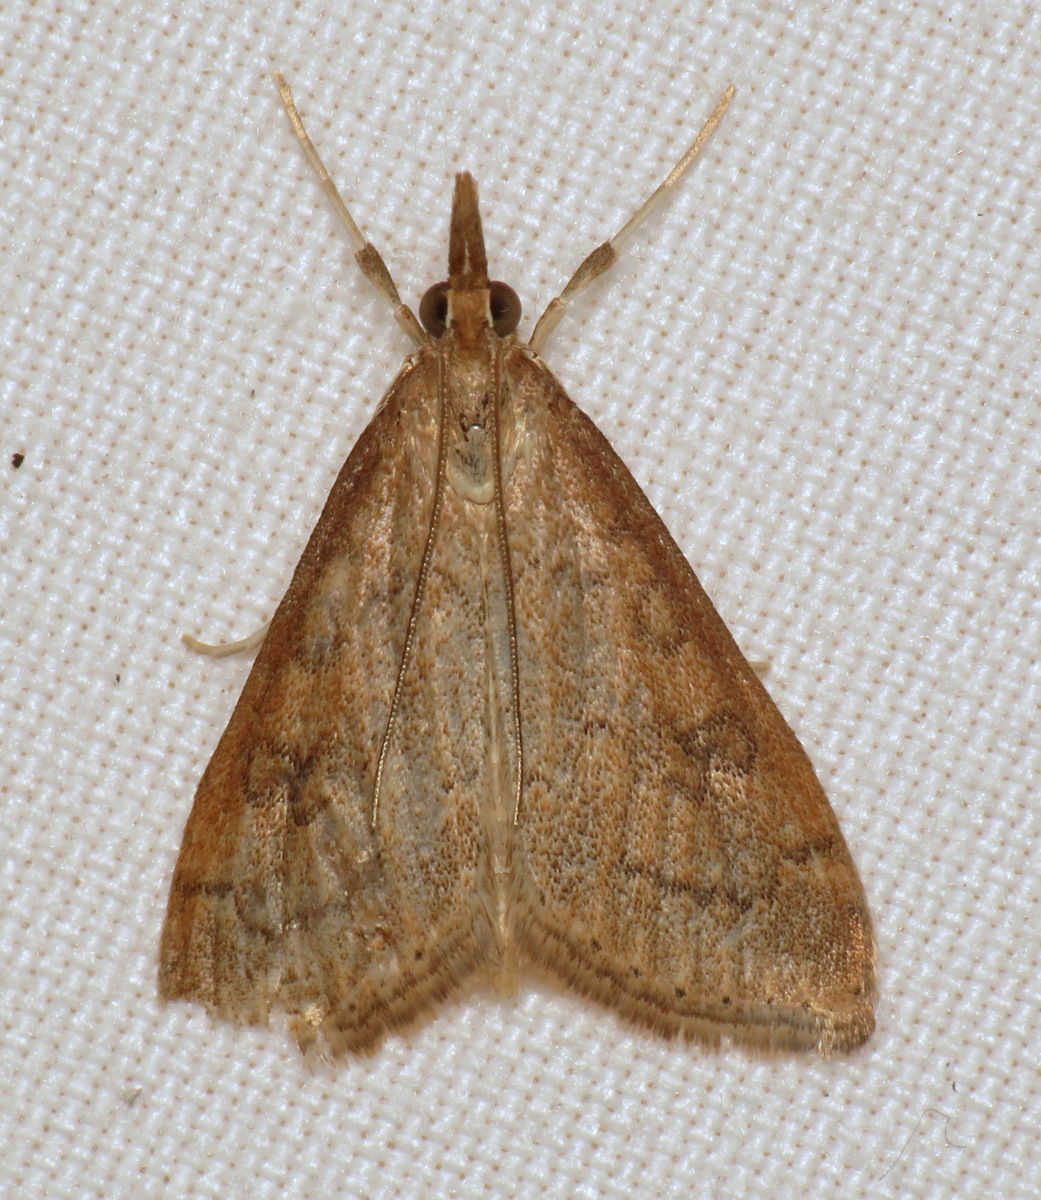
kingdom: Animalia
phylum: Arthropoda
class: Insecta
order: Lepidoptera
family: Crambidae
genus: Udea
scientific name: Udea rubigalis
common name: Celery leaftier moth
